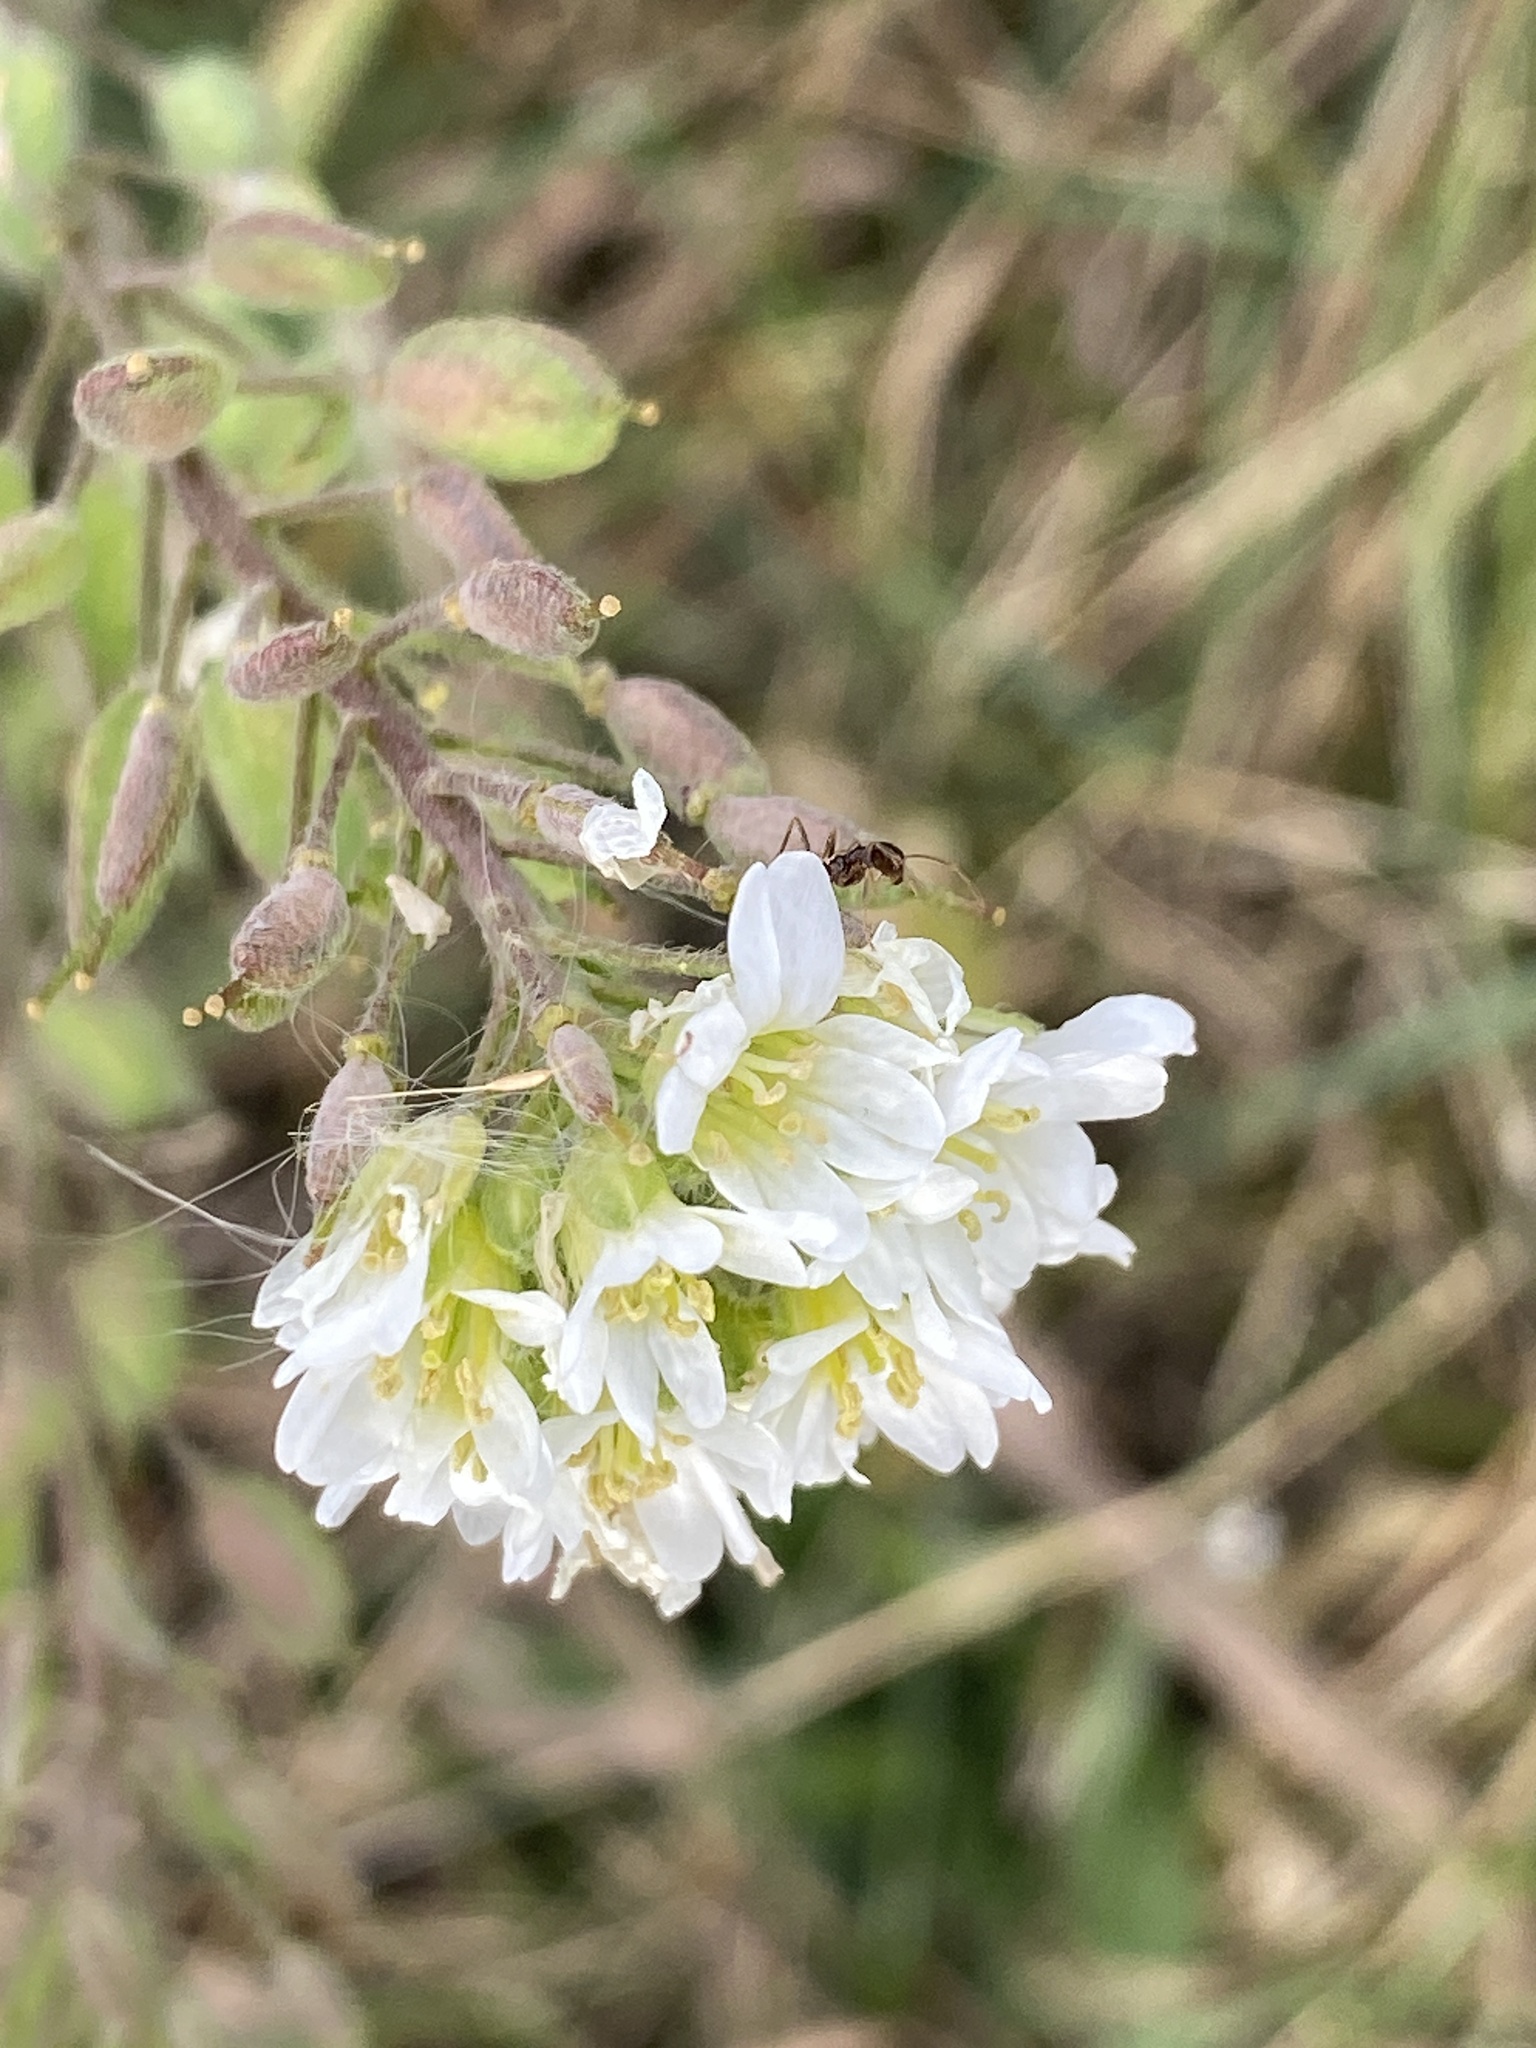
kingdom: Plantae
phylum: Tracheophyta
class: Magnoliopsida
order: Brassicales
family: Brassicaceae
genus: Berteroa
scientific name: Berteroa incana
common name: Hoary alison
